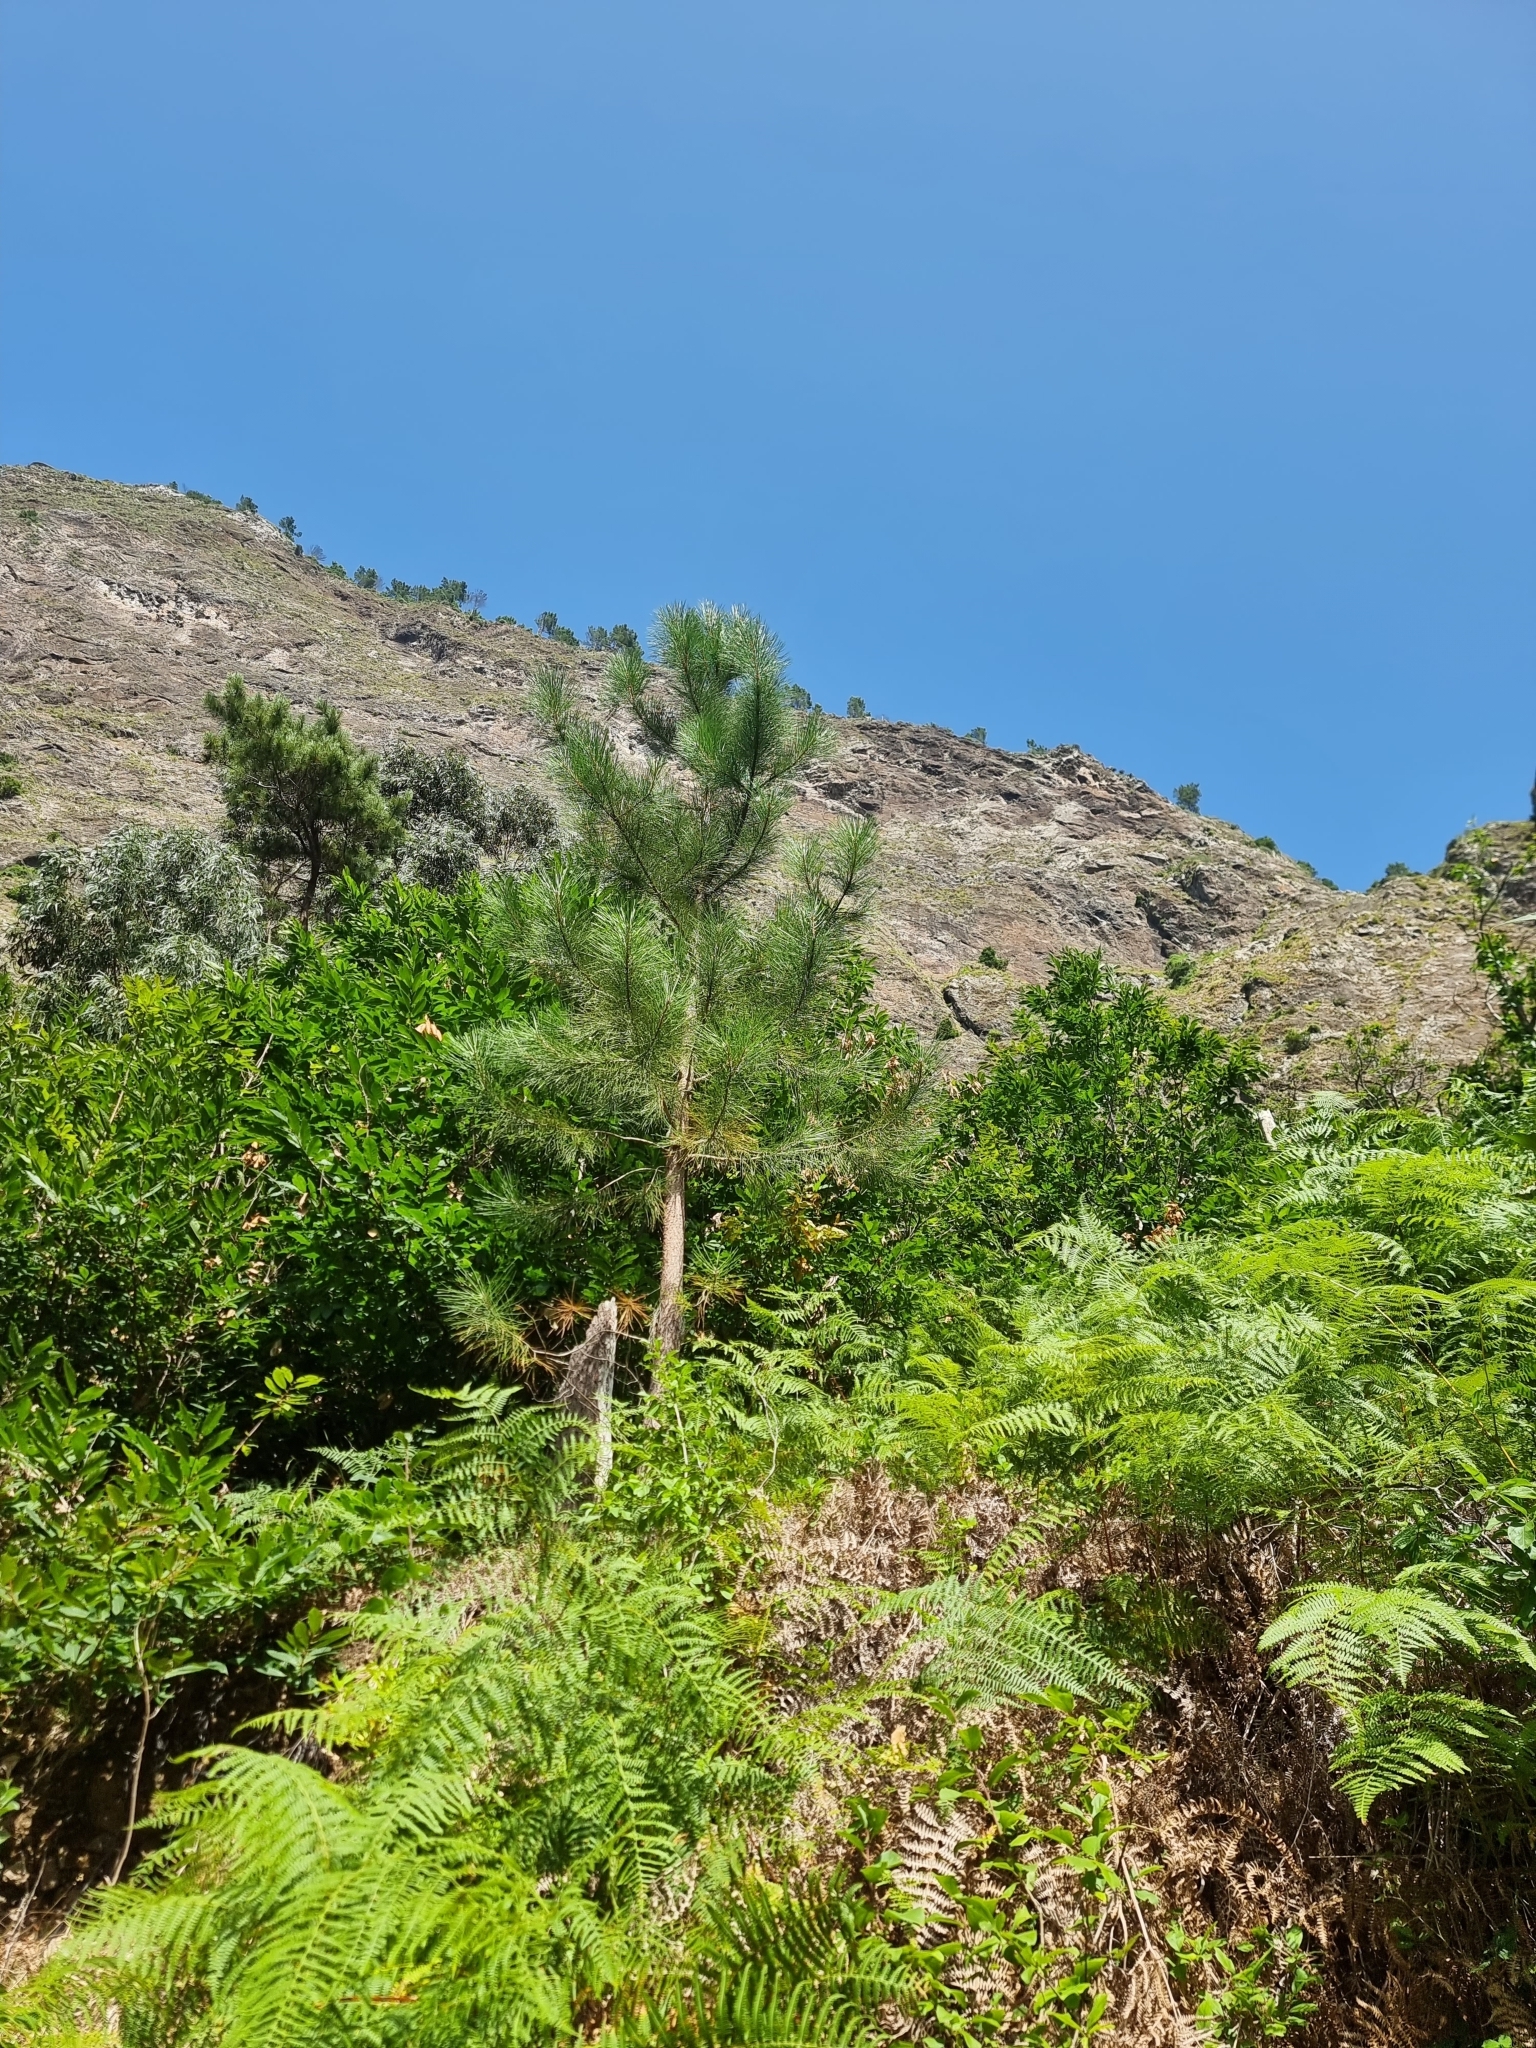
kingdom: Plantae
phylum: Tracheophyta
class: Pinopsida
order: Pinales
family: Pinaceae
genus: Pinus
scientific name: Pinus pinaster
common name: Maritime pine
